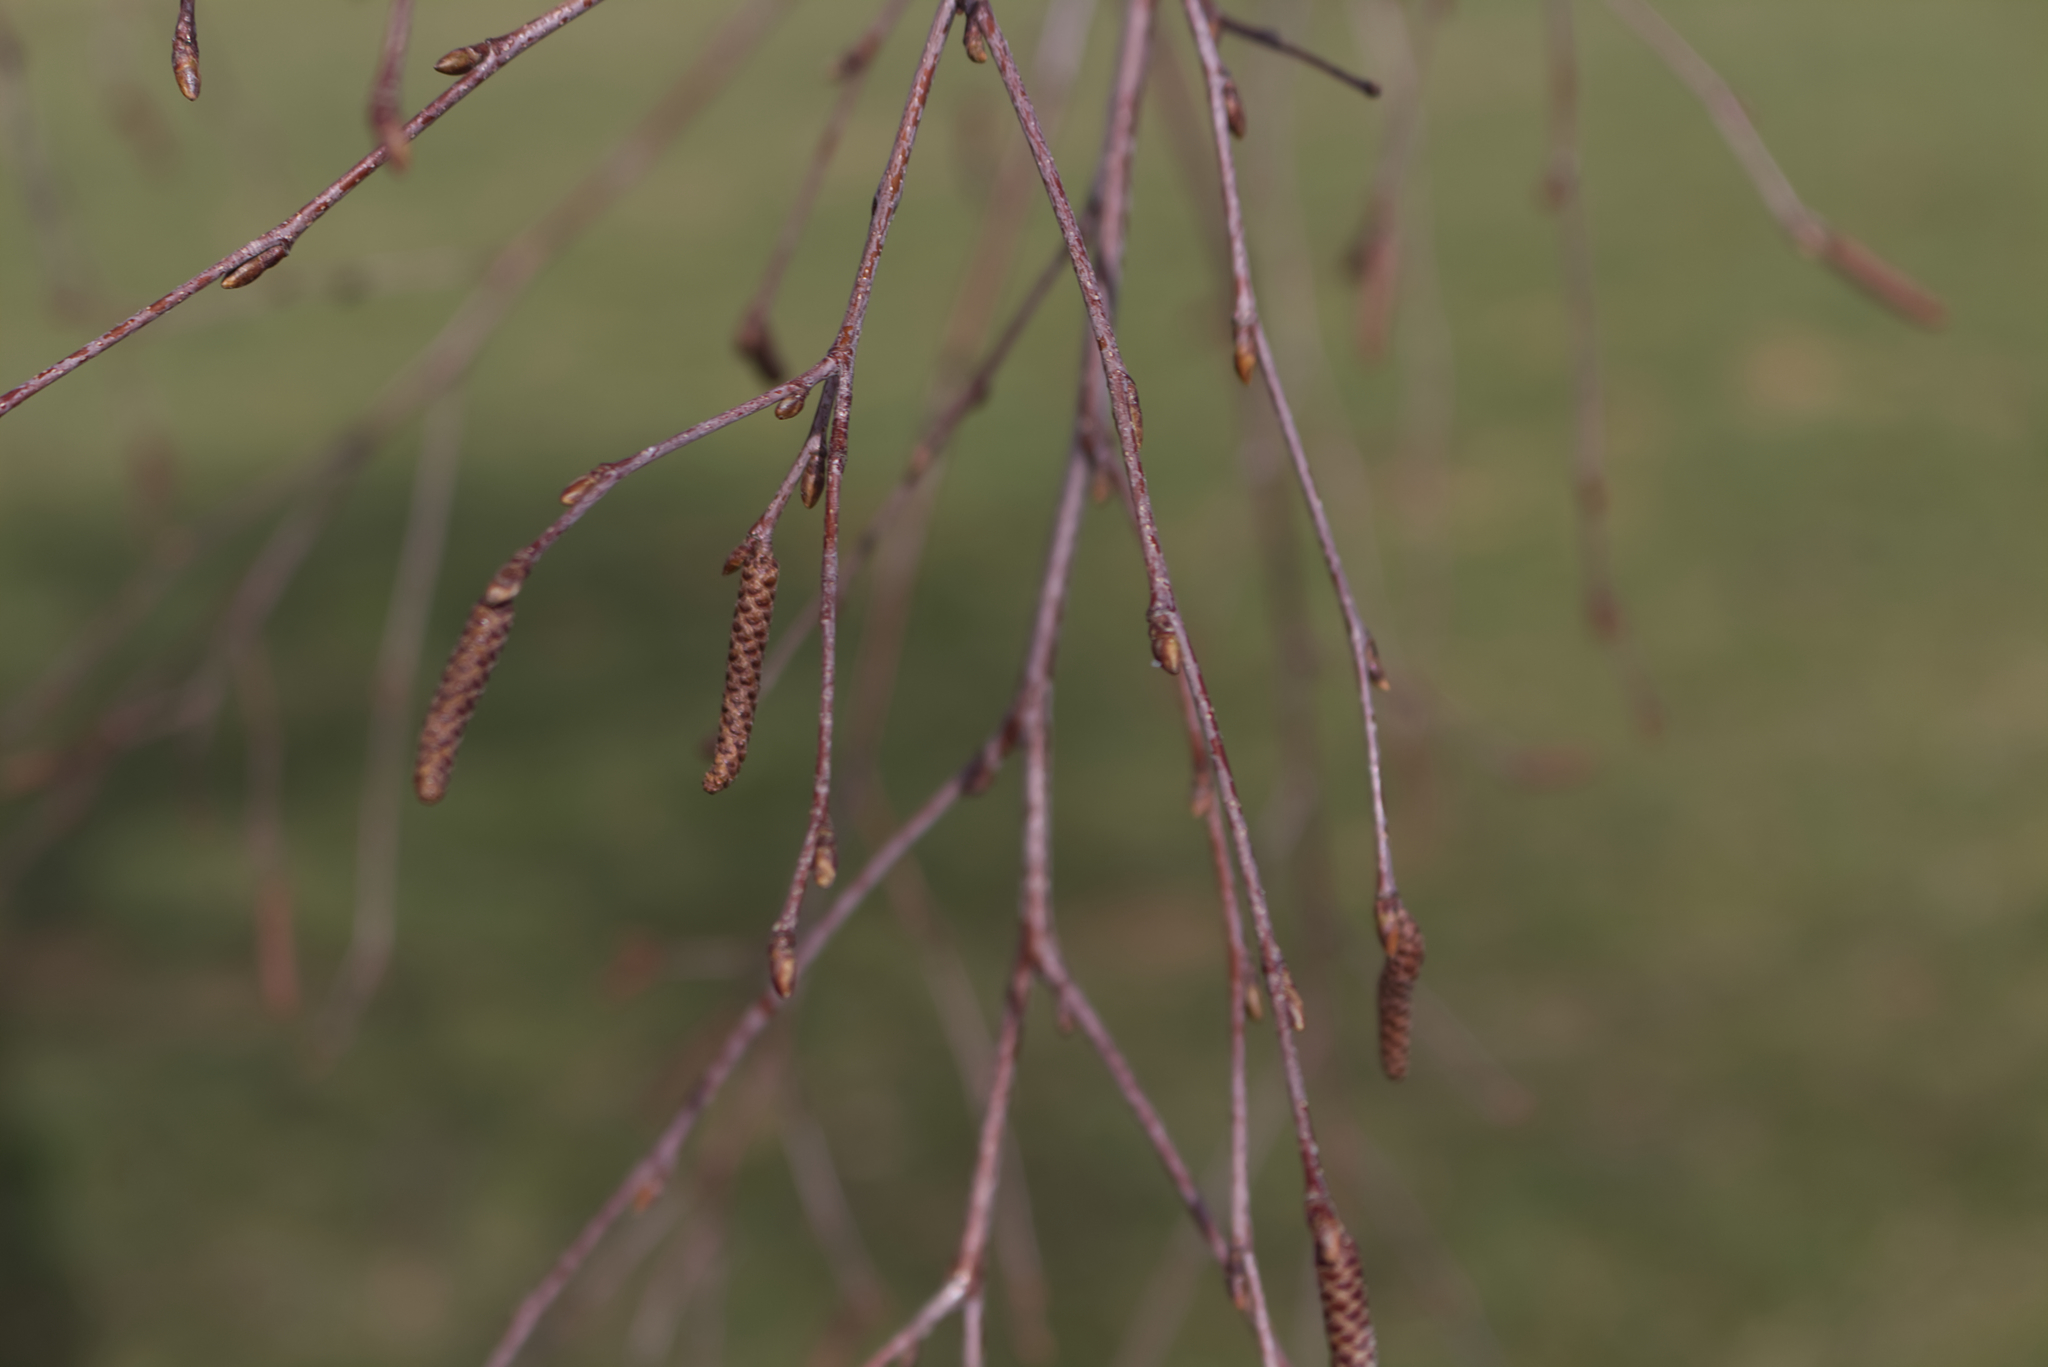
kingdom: Plantae
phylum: Tracheophyta
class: Magnoliopsida
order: Fagales
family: Betulaceae
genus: Betula
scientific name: Betula pendula
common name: Silver birch
